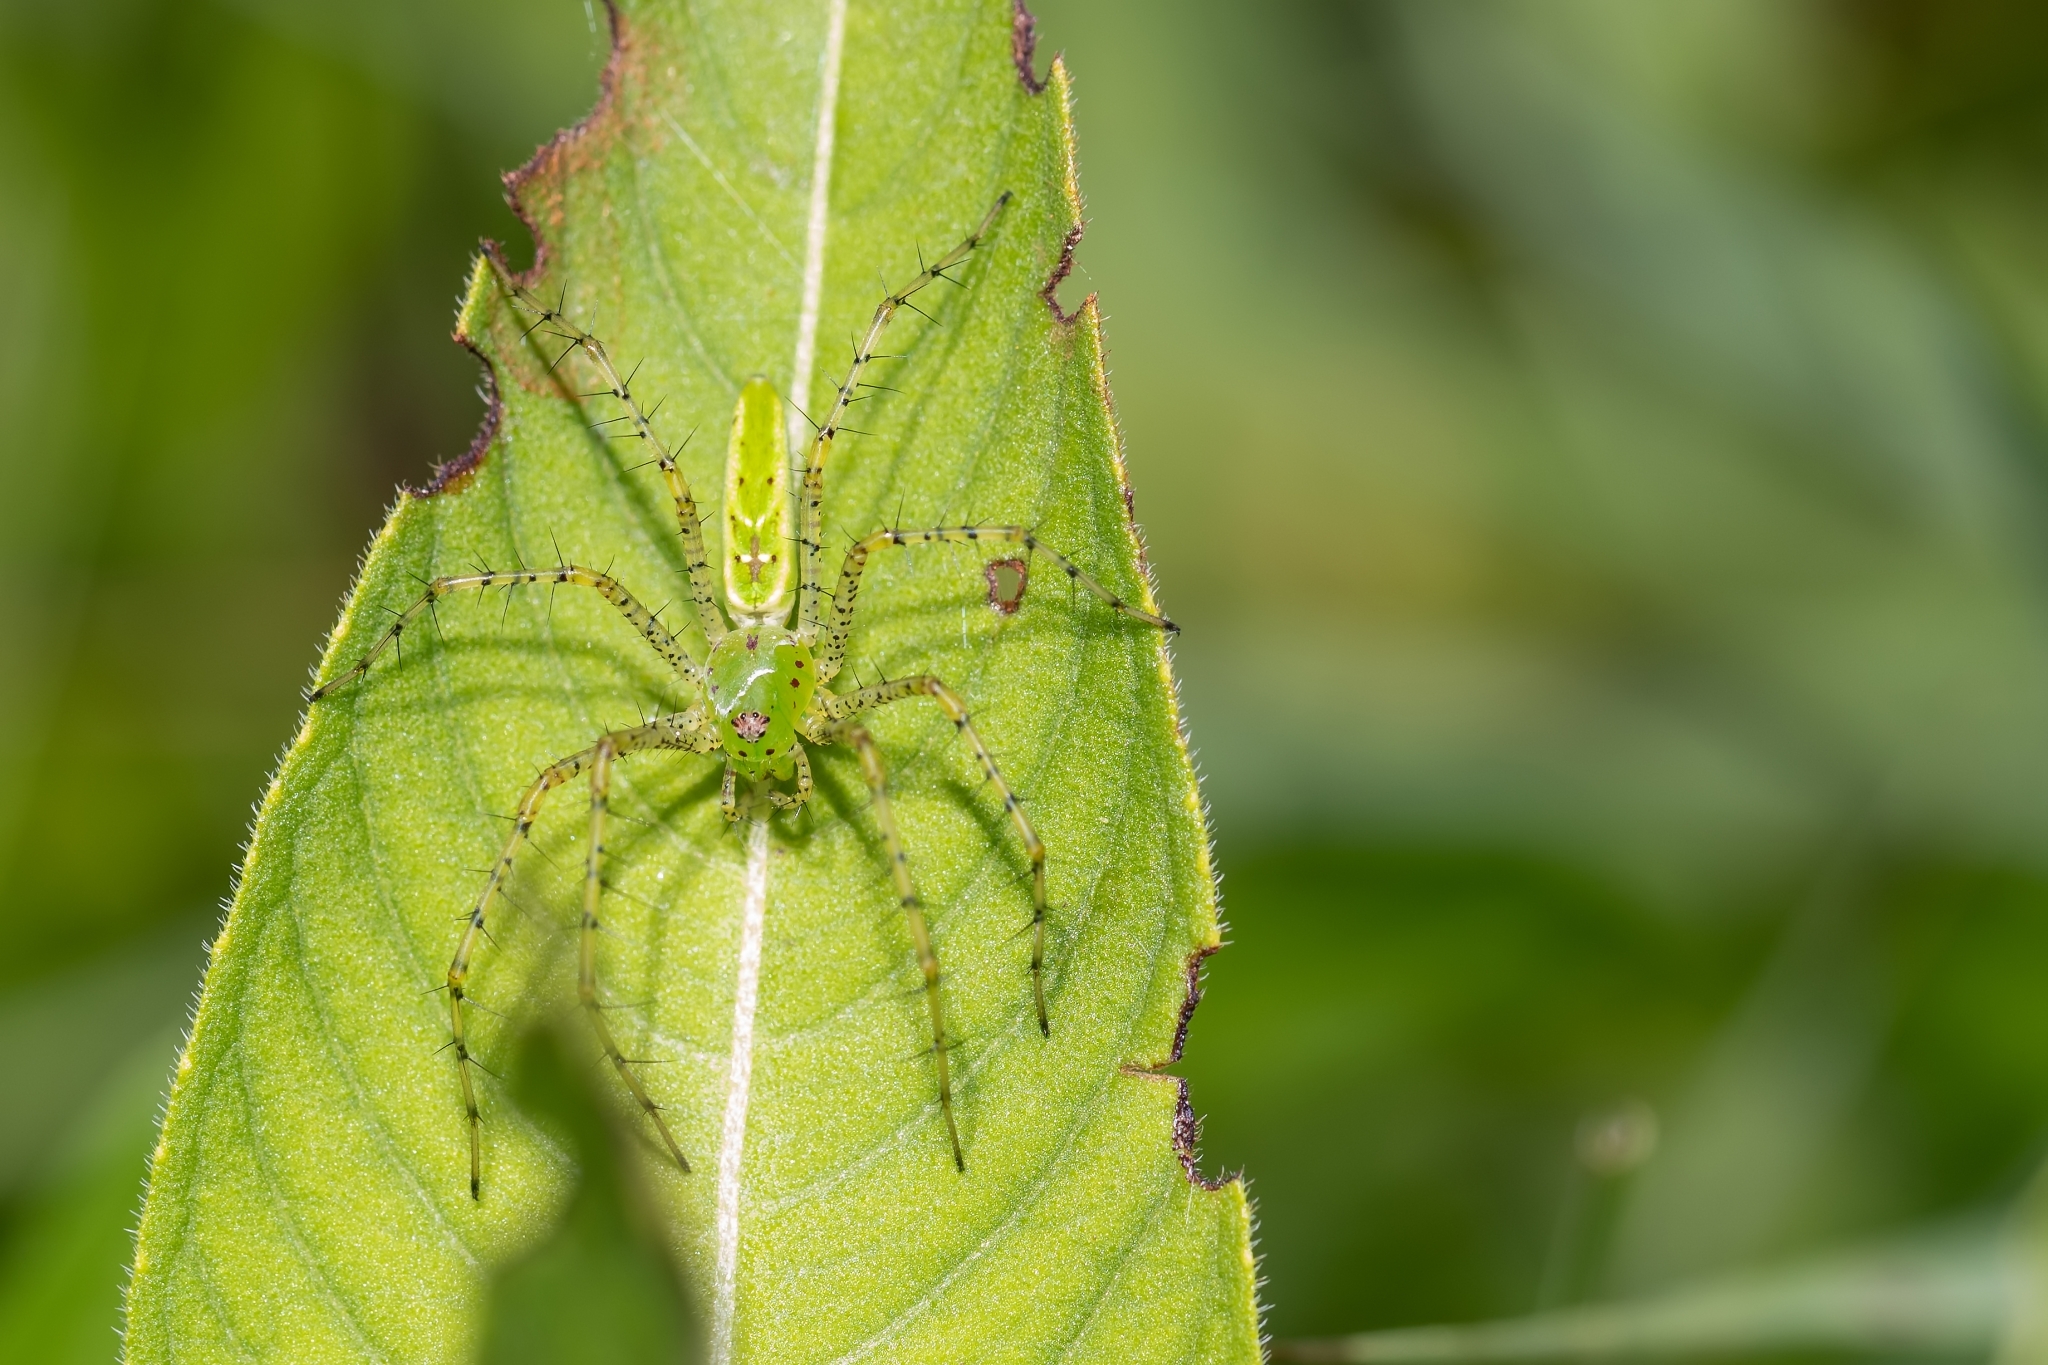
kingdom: Animalia
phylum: Arthropoda
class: Arachnida
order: Araneae
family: Oxyopidae
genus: Peucetia
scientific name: Peucetia viridans
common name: Lynx spiders
